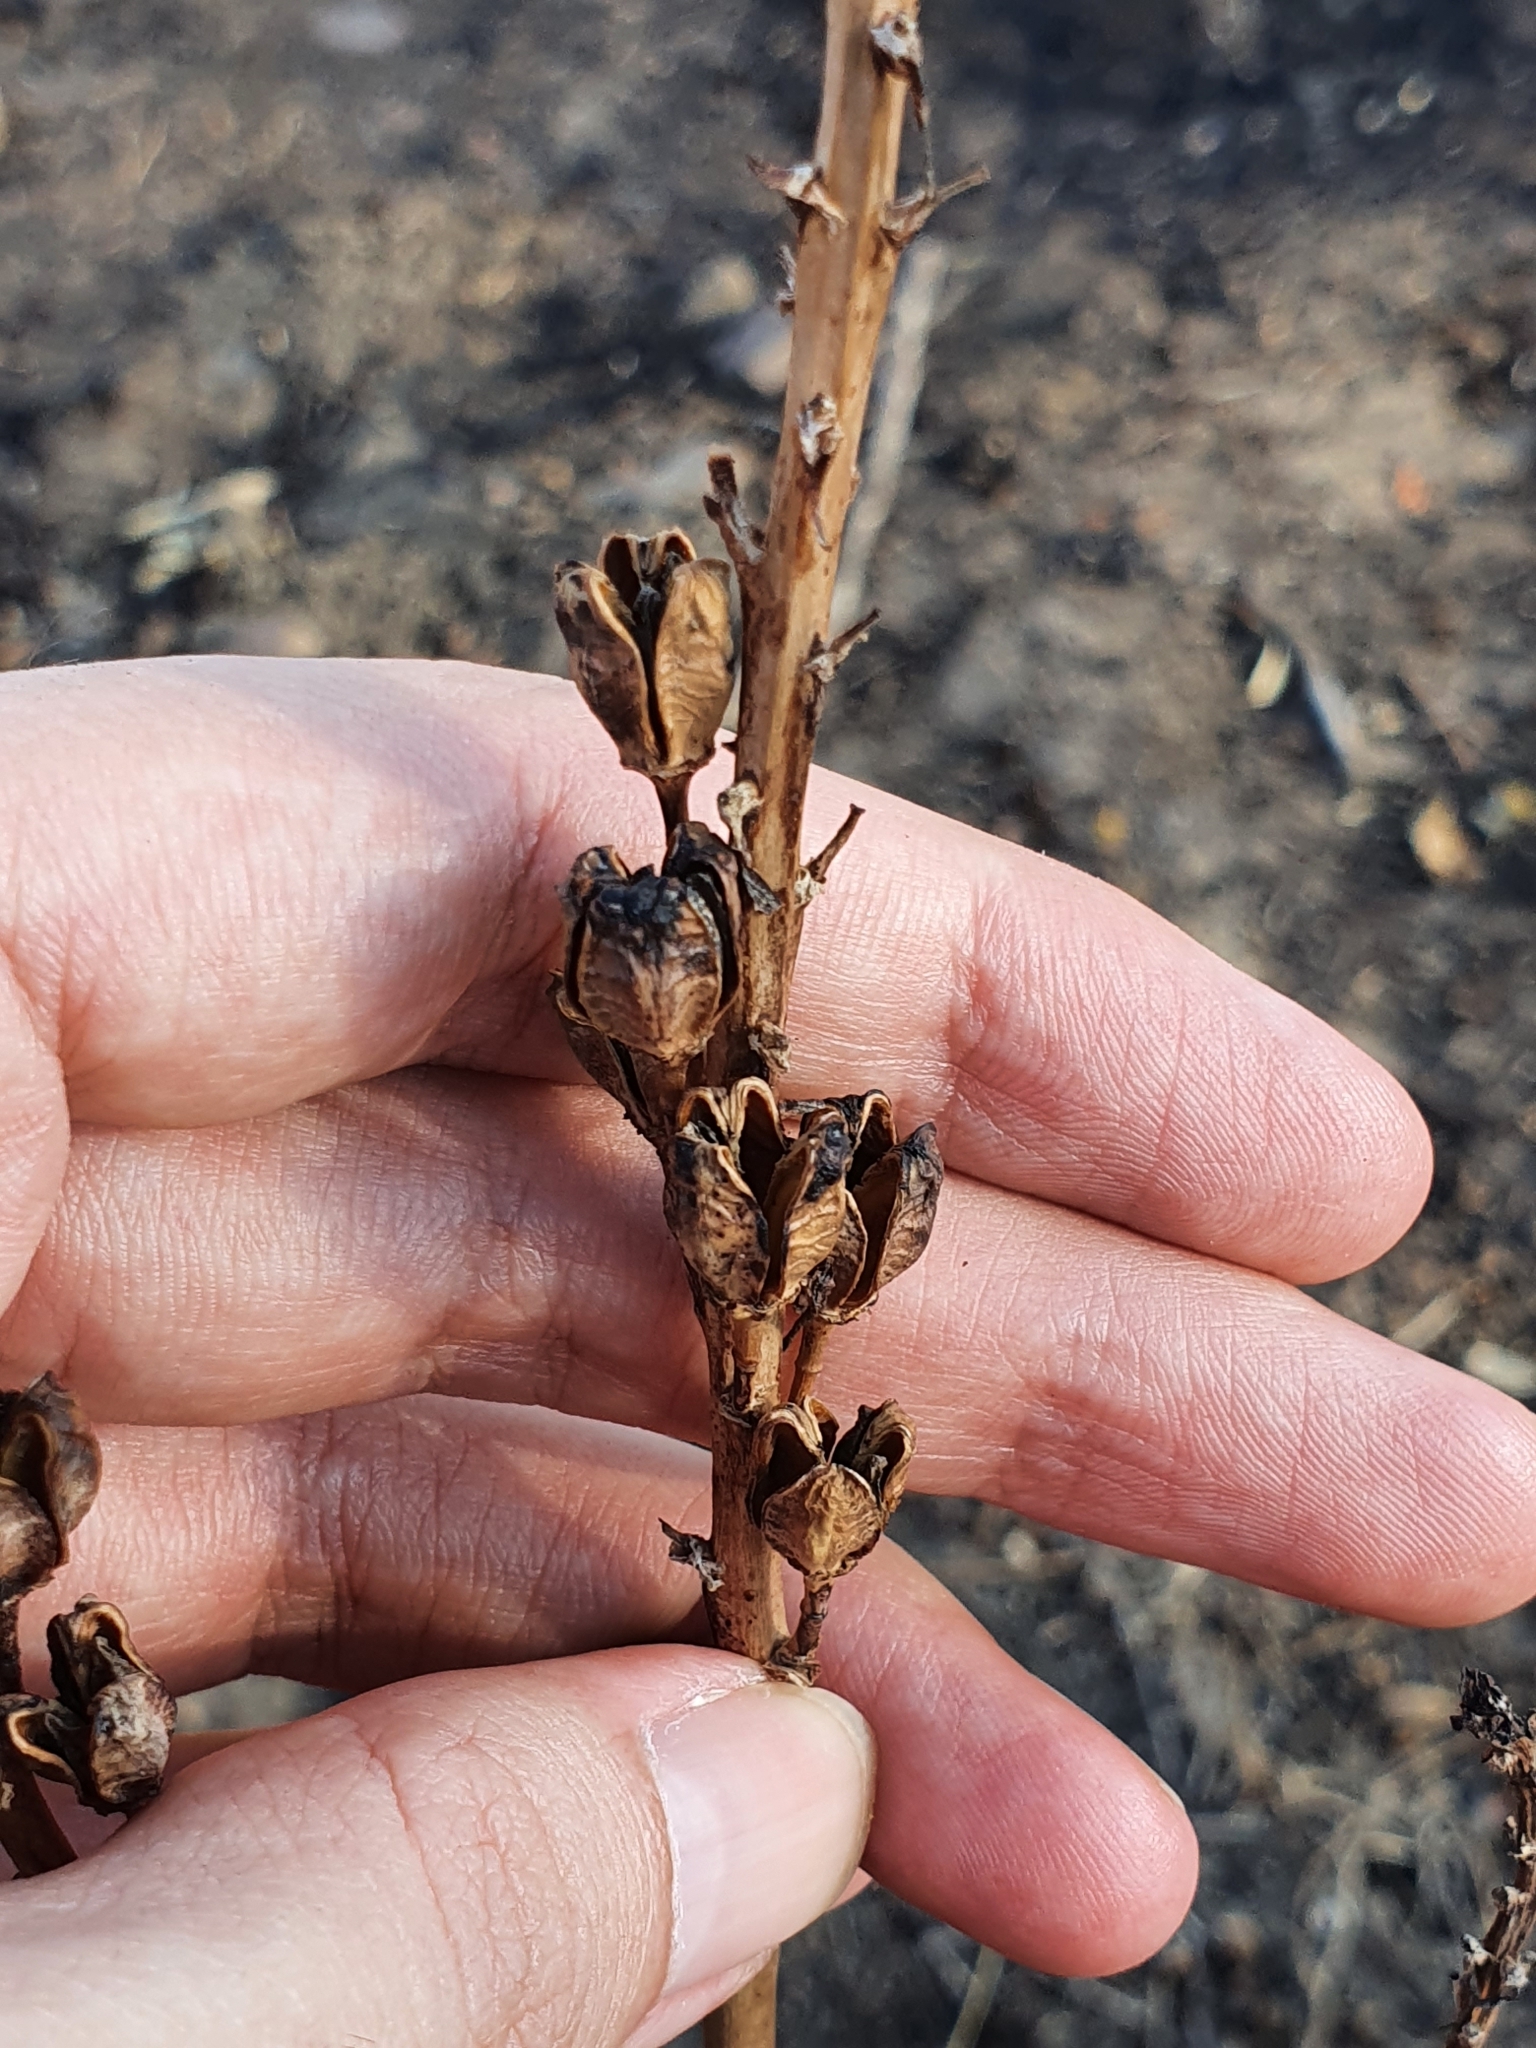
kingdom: Plantae
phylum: Tracheophyta
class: Liliopsida
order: Asparagales
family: Asphodelaceae
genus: Asphodelus
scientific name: Asphodelus ramosus
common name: Silverrod
